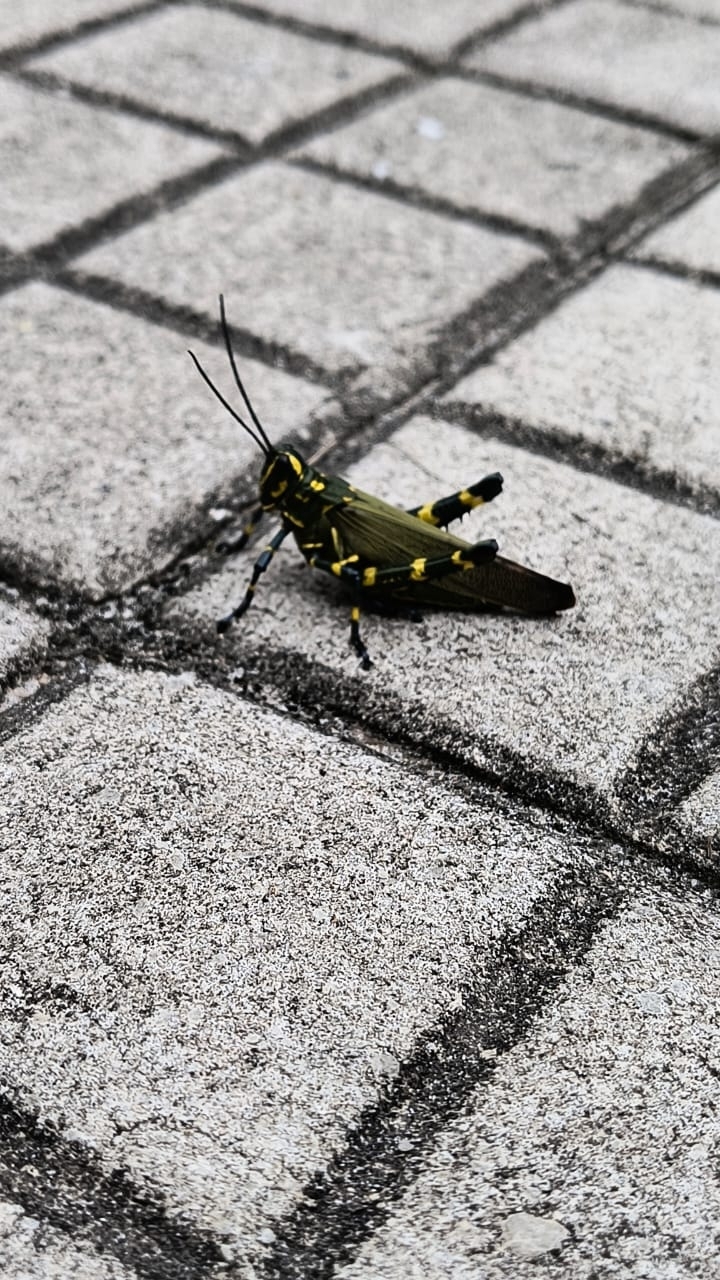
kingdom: Animalia
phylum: Arthropoda
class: Insecta
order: Orthoptera
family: Romaleidae
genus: Chromacris
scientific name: Chromacris speciosa
